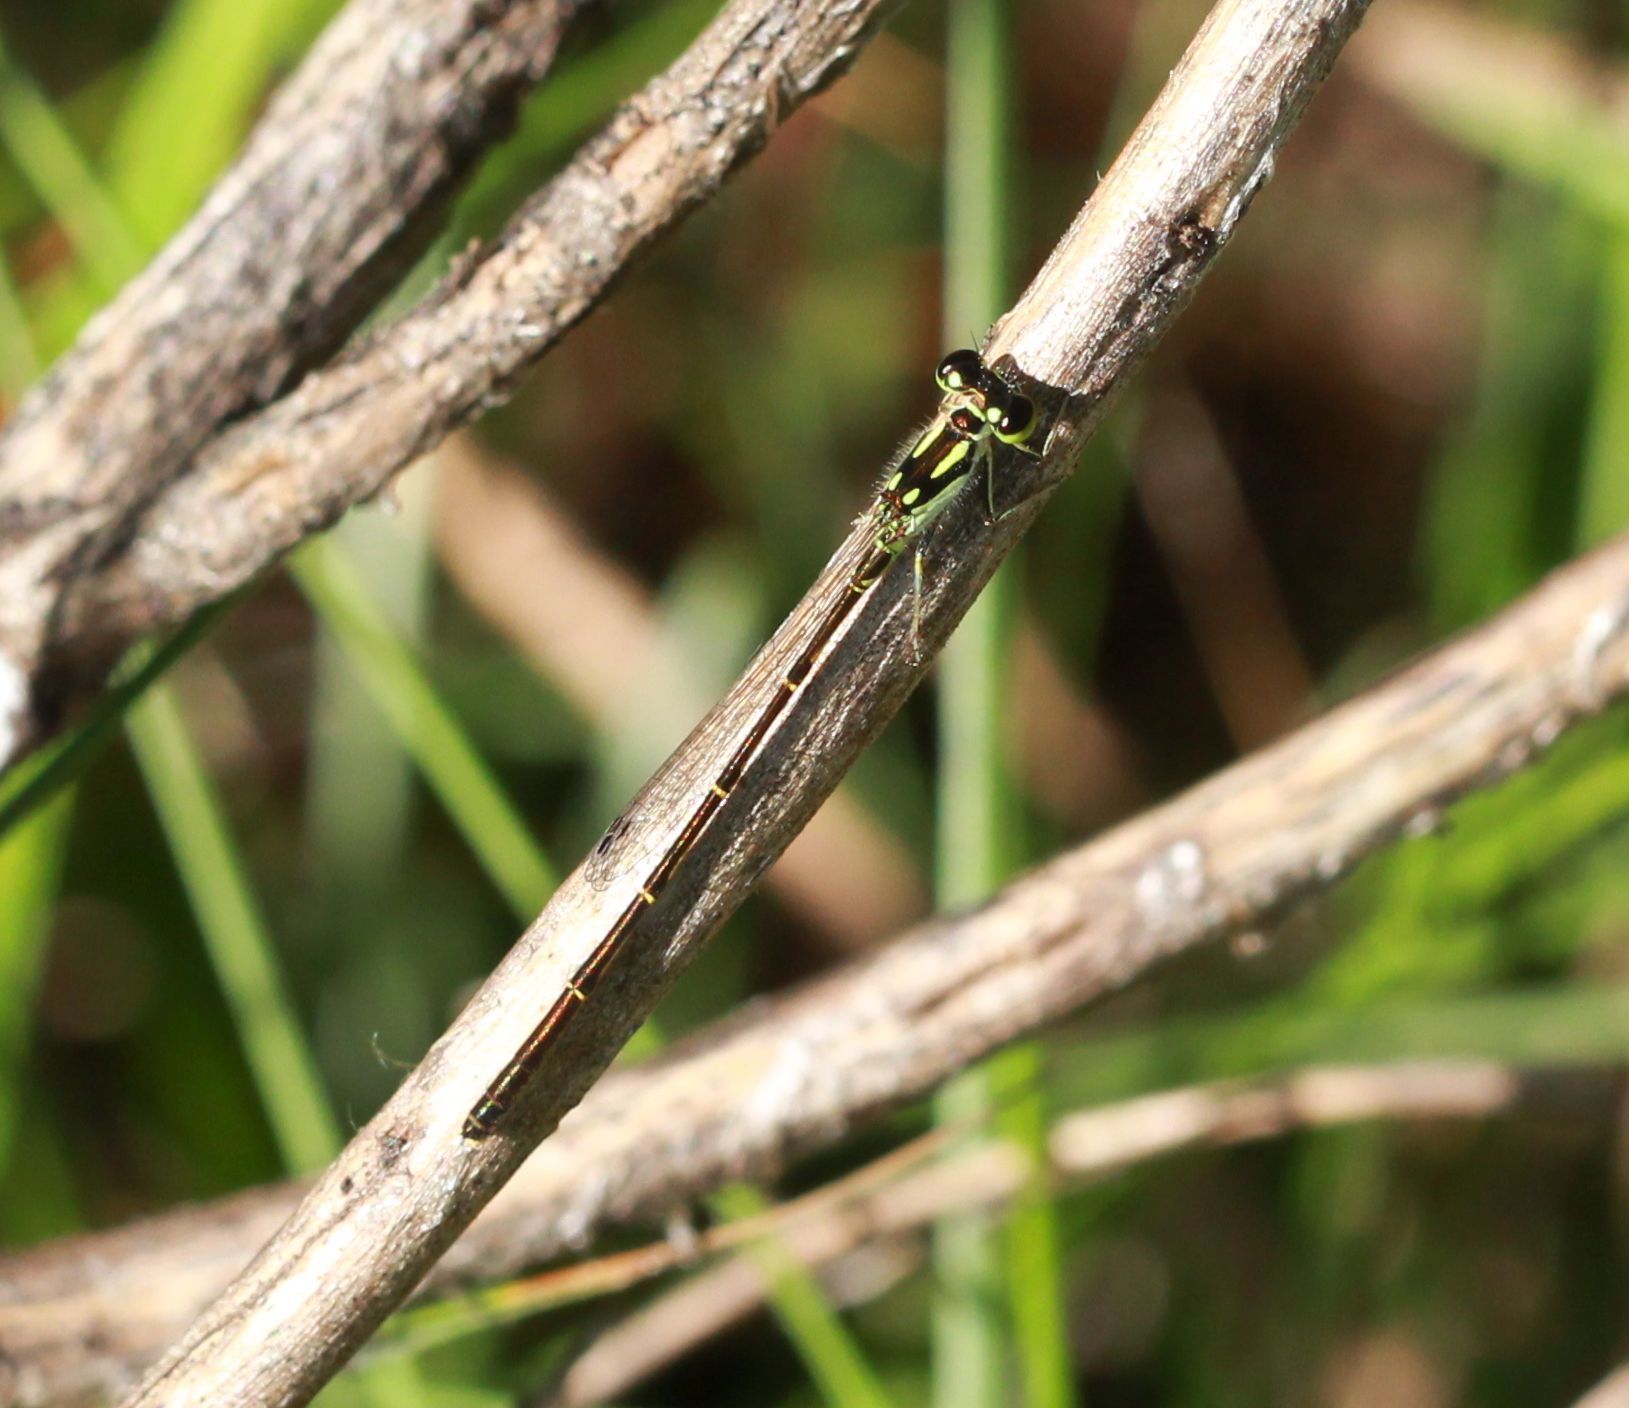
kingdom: Animalia
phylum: Arthropoda
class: Insecta
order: Odonata
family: Coenagrionidae
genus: Ischnura
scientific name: Ischnura posita
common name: Fragile forktail
